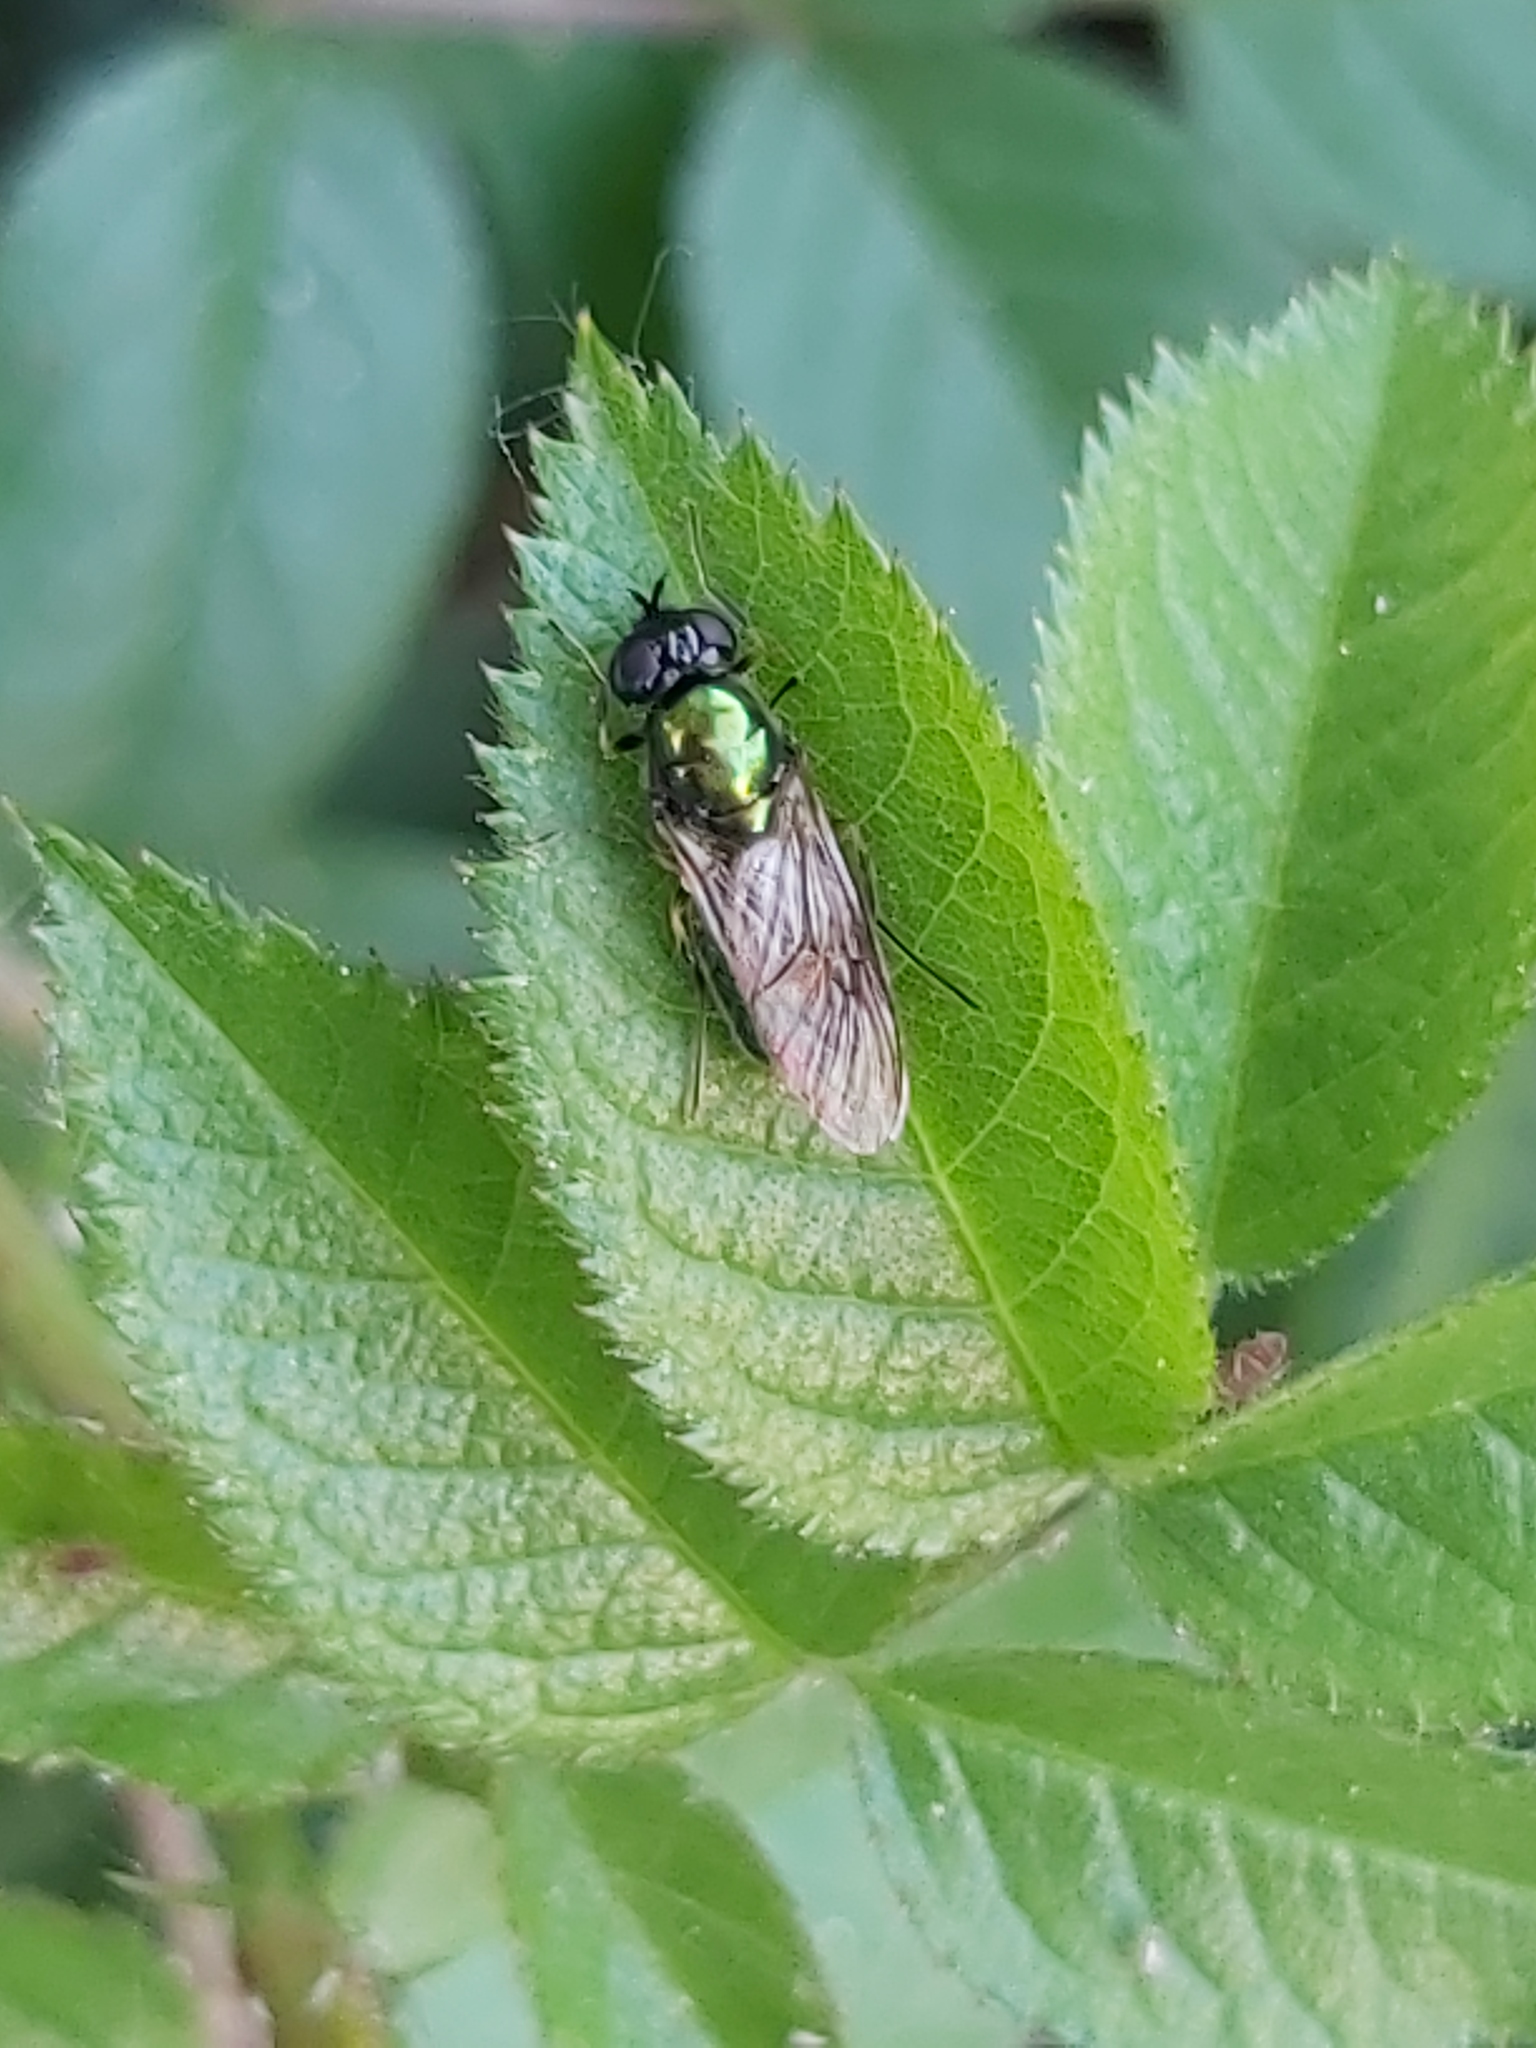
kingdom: Animalia
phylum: Arthropoda
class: Insecta
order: Diptera
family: Stratiomyidae
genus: Chloromyia
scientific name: Chloromyia formosa
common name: Soldier fly
